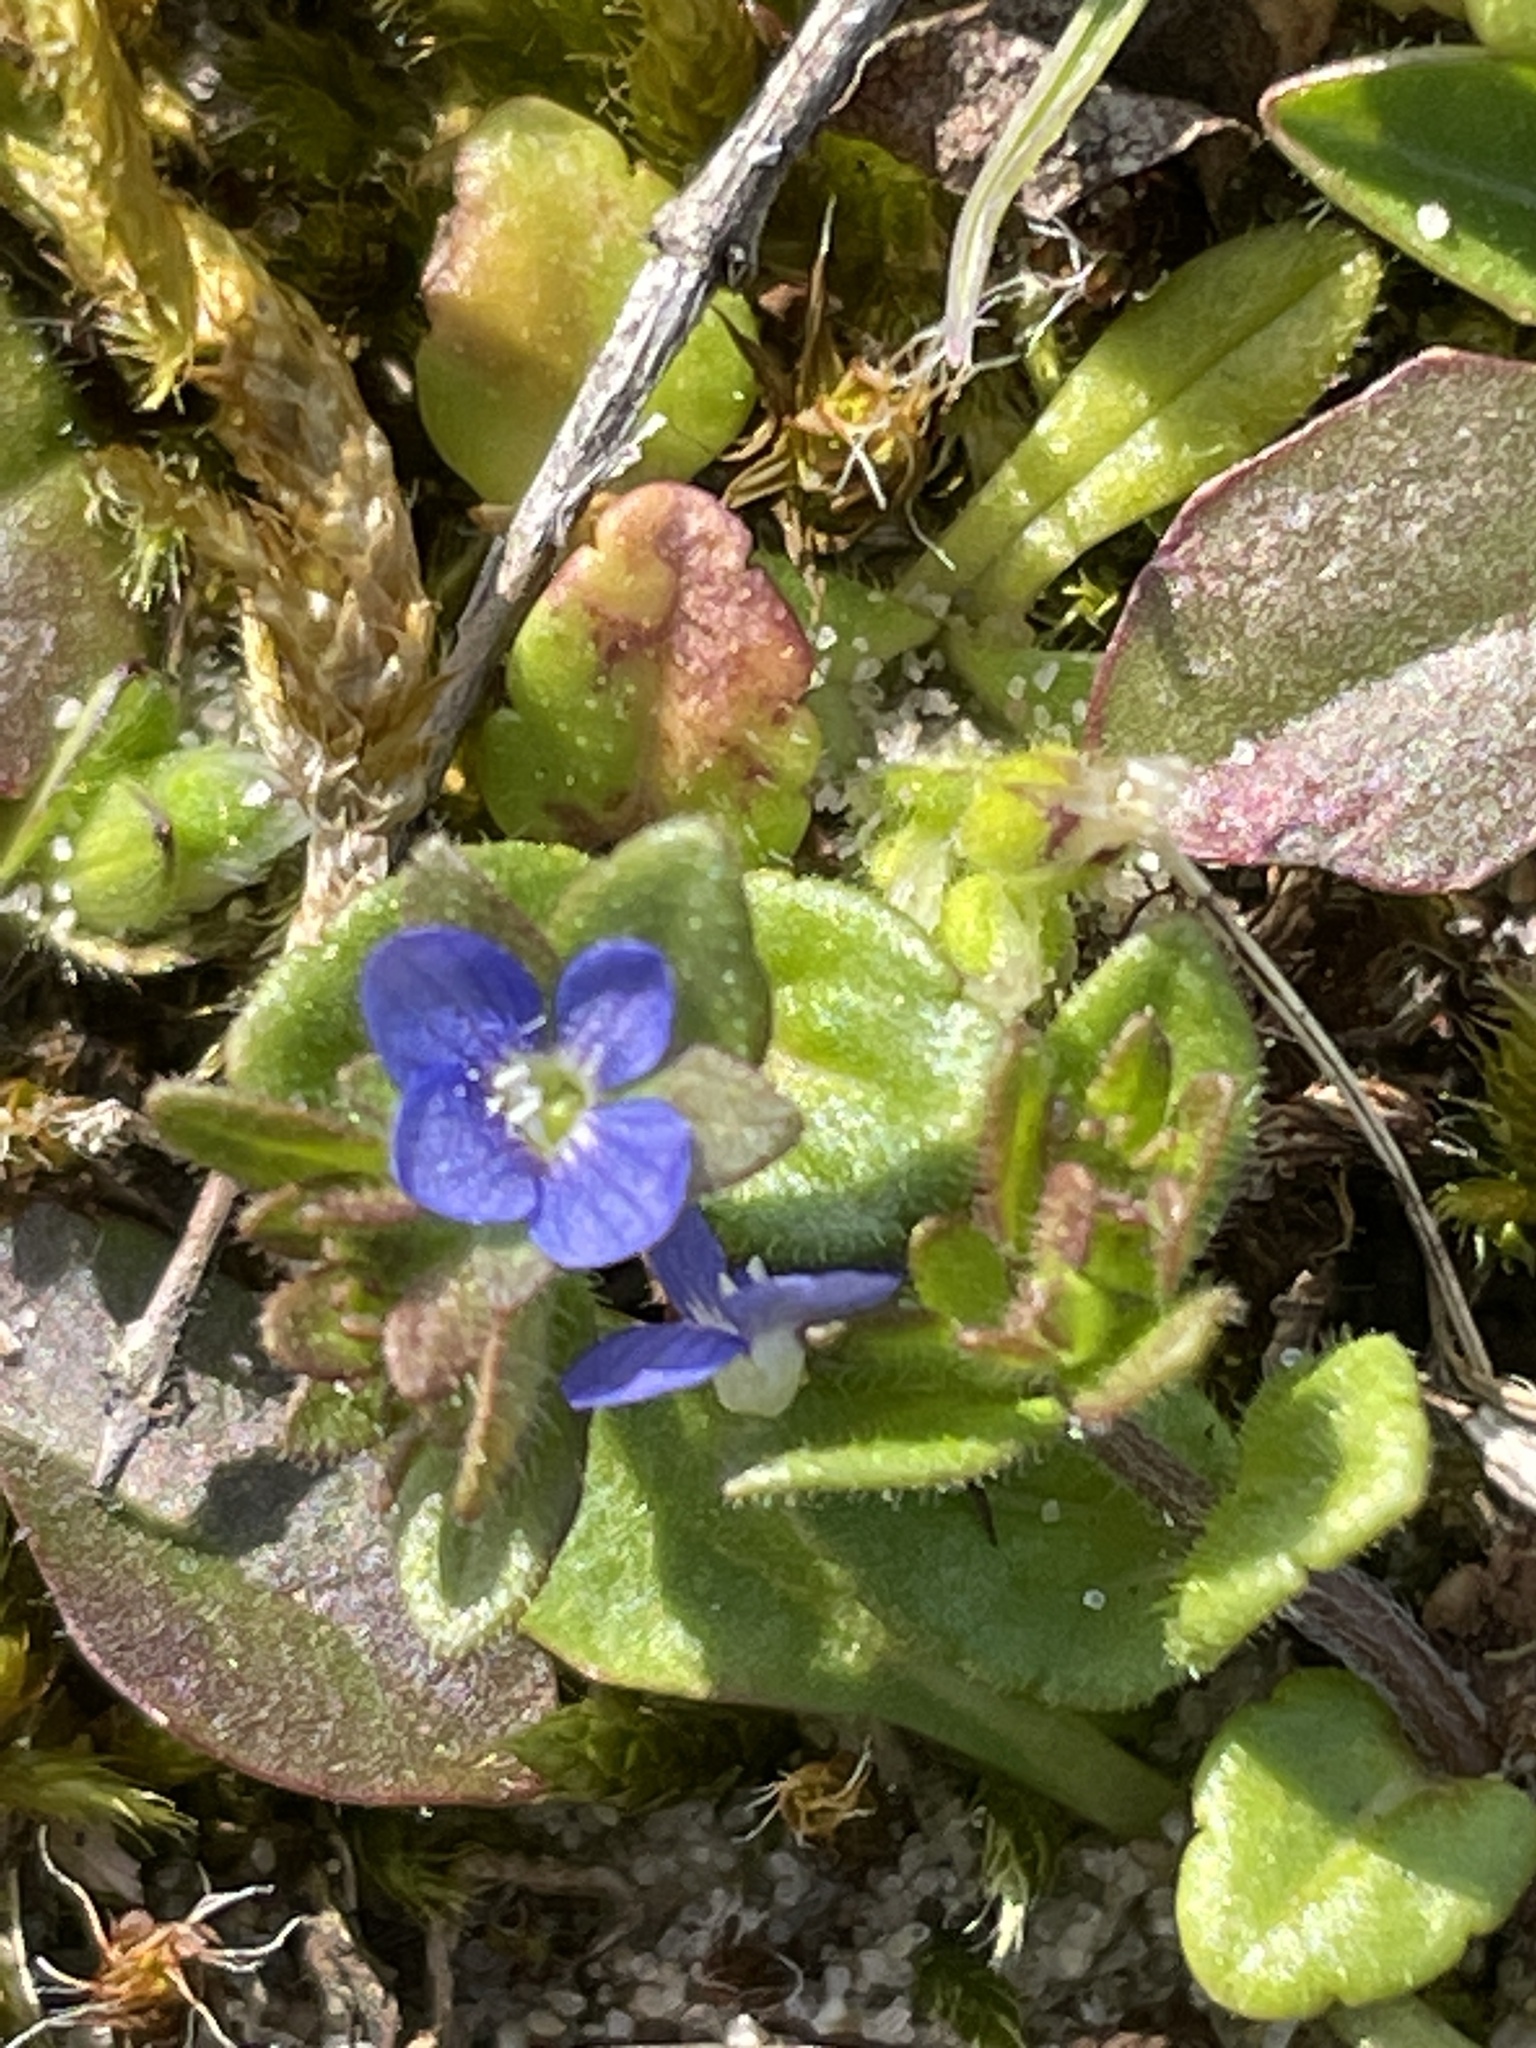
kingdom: Plantae
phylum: Tracheophyta
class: Magnoliopsida
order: Lamiales
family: Plantaginaceae
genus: Veronica
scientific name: Veronica arvensis
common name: Corn speedwell
